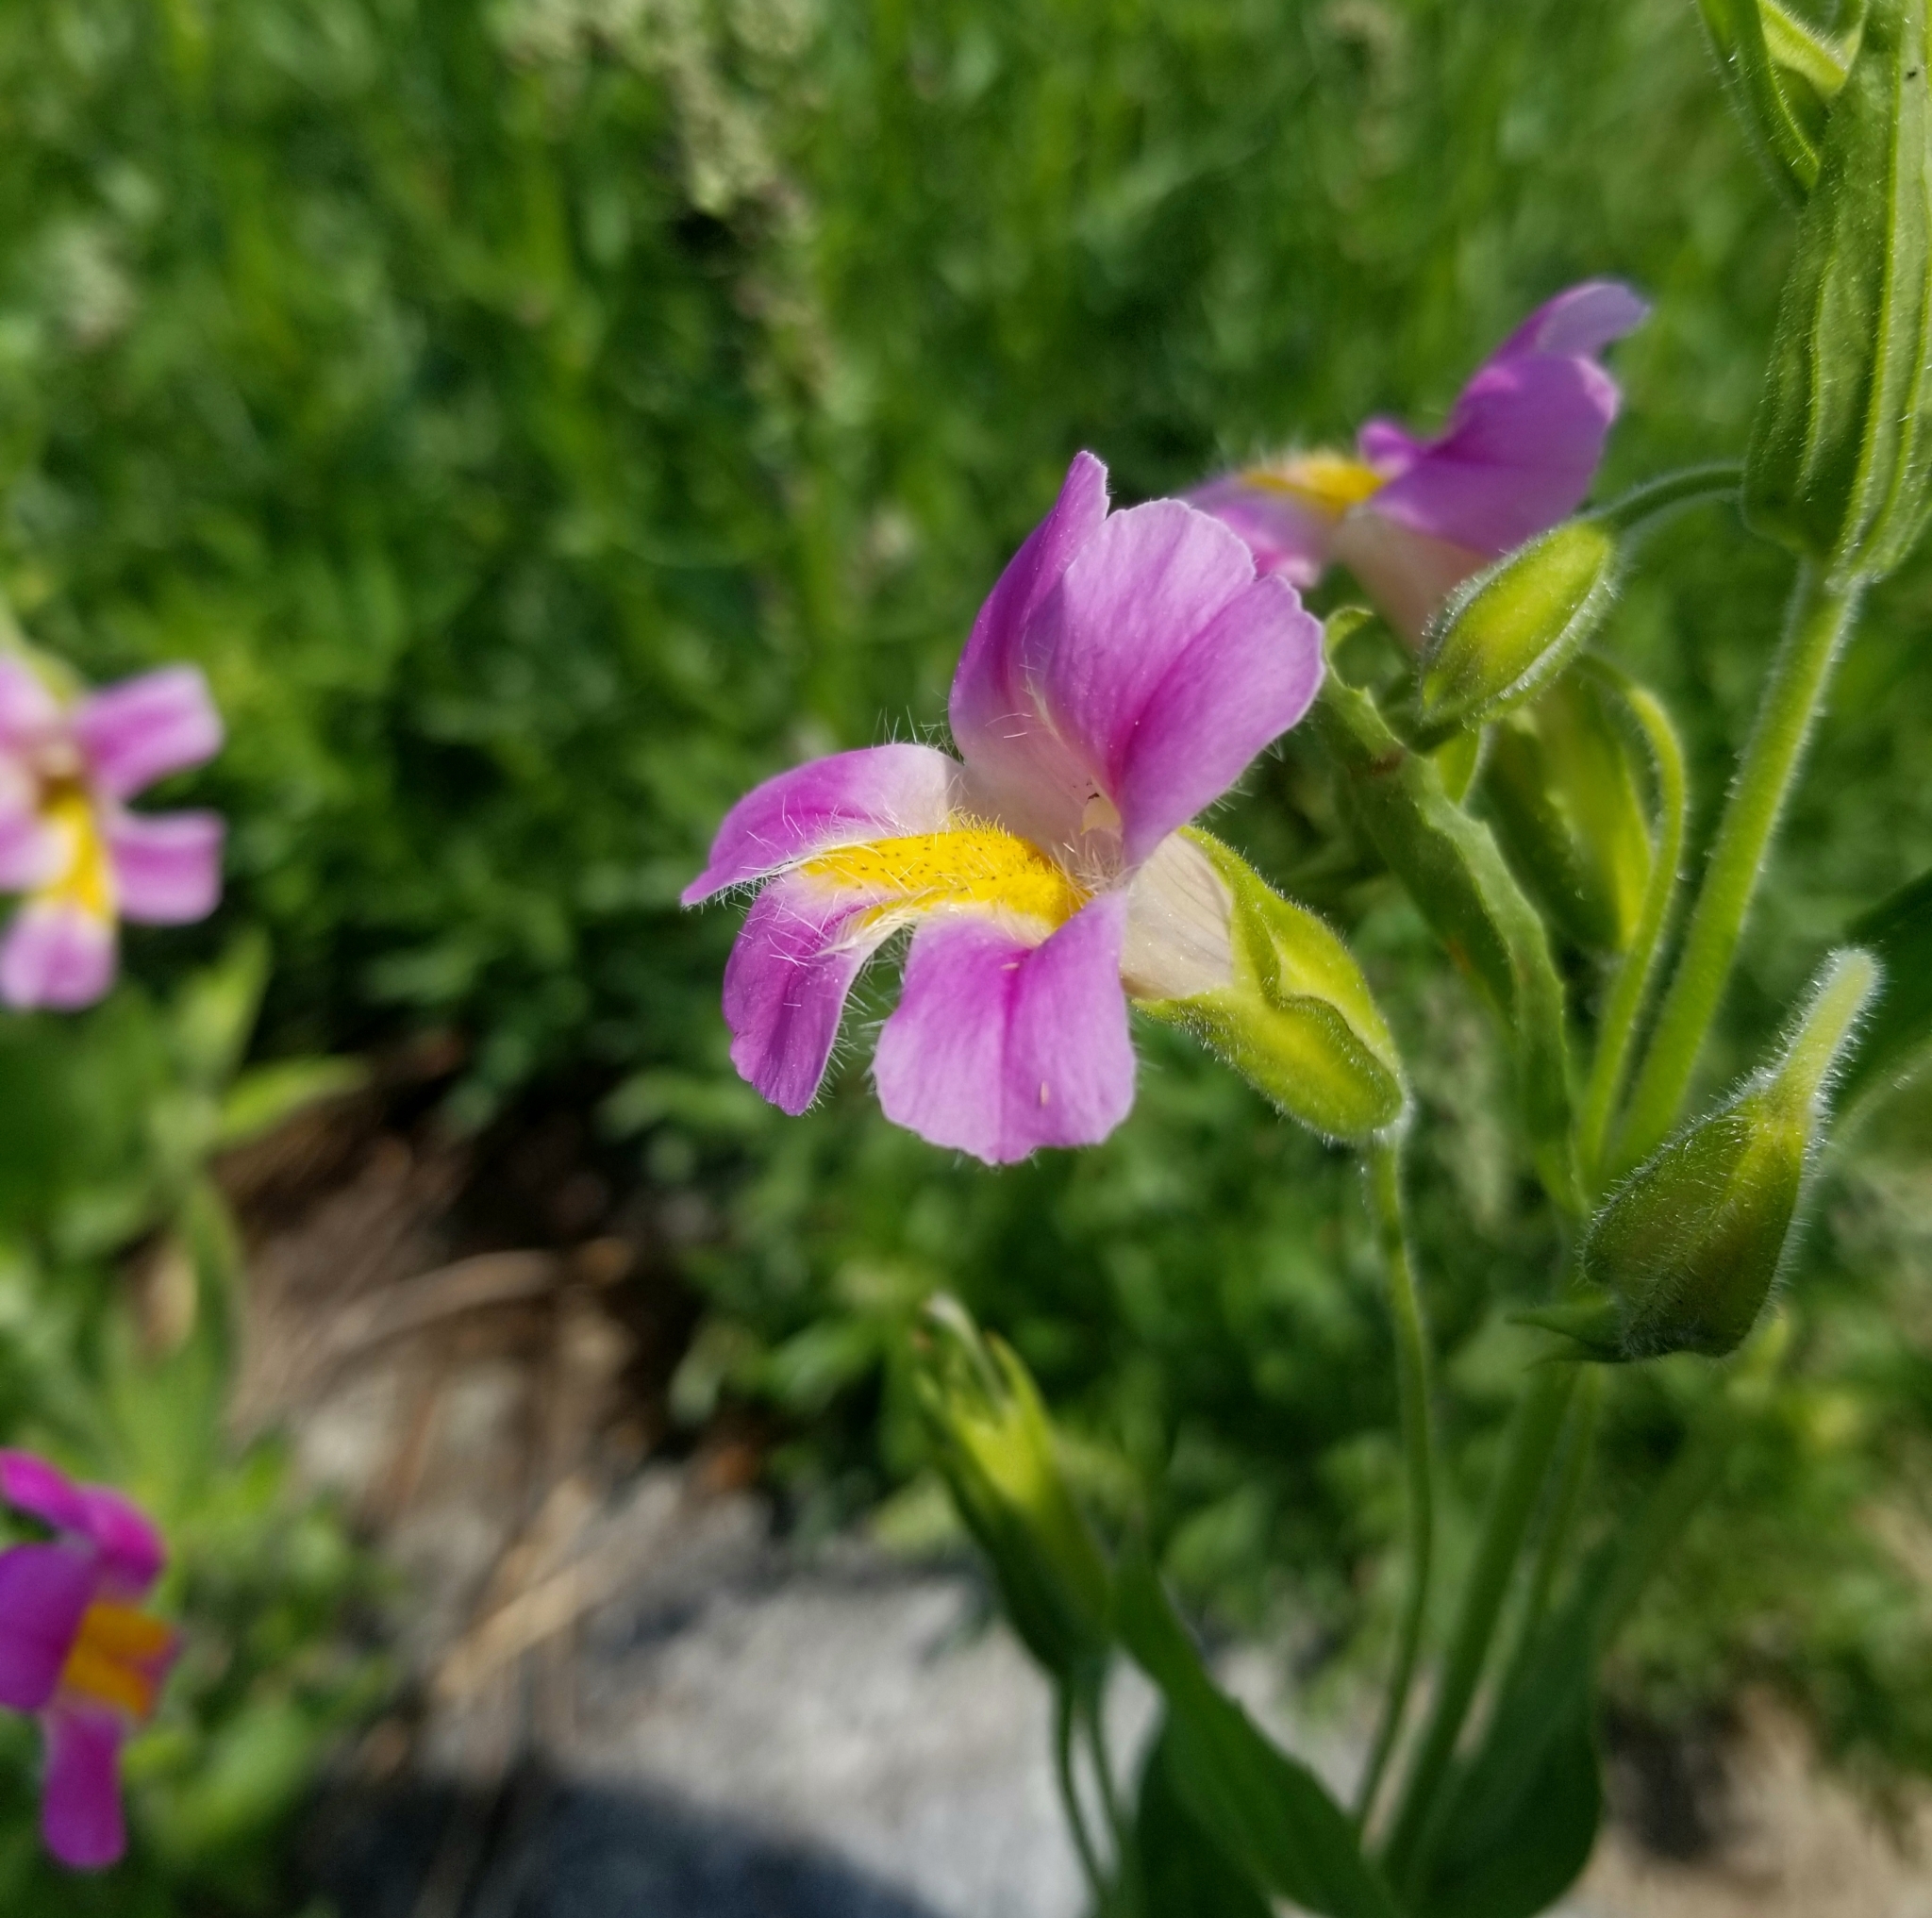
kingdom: Plantae
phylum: Tracheophyta
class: Magnoliopsida
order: Lamiales
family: Phrymaceae
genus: Erythranthe
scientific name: Erythranthe erubescens
